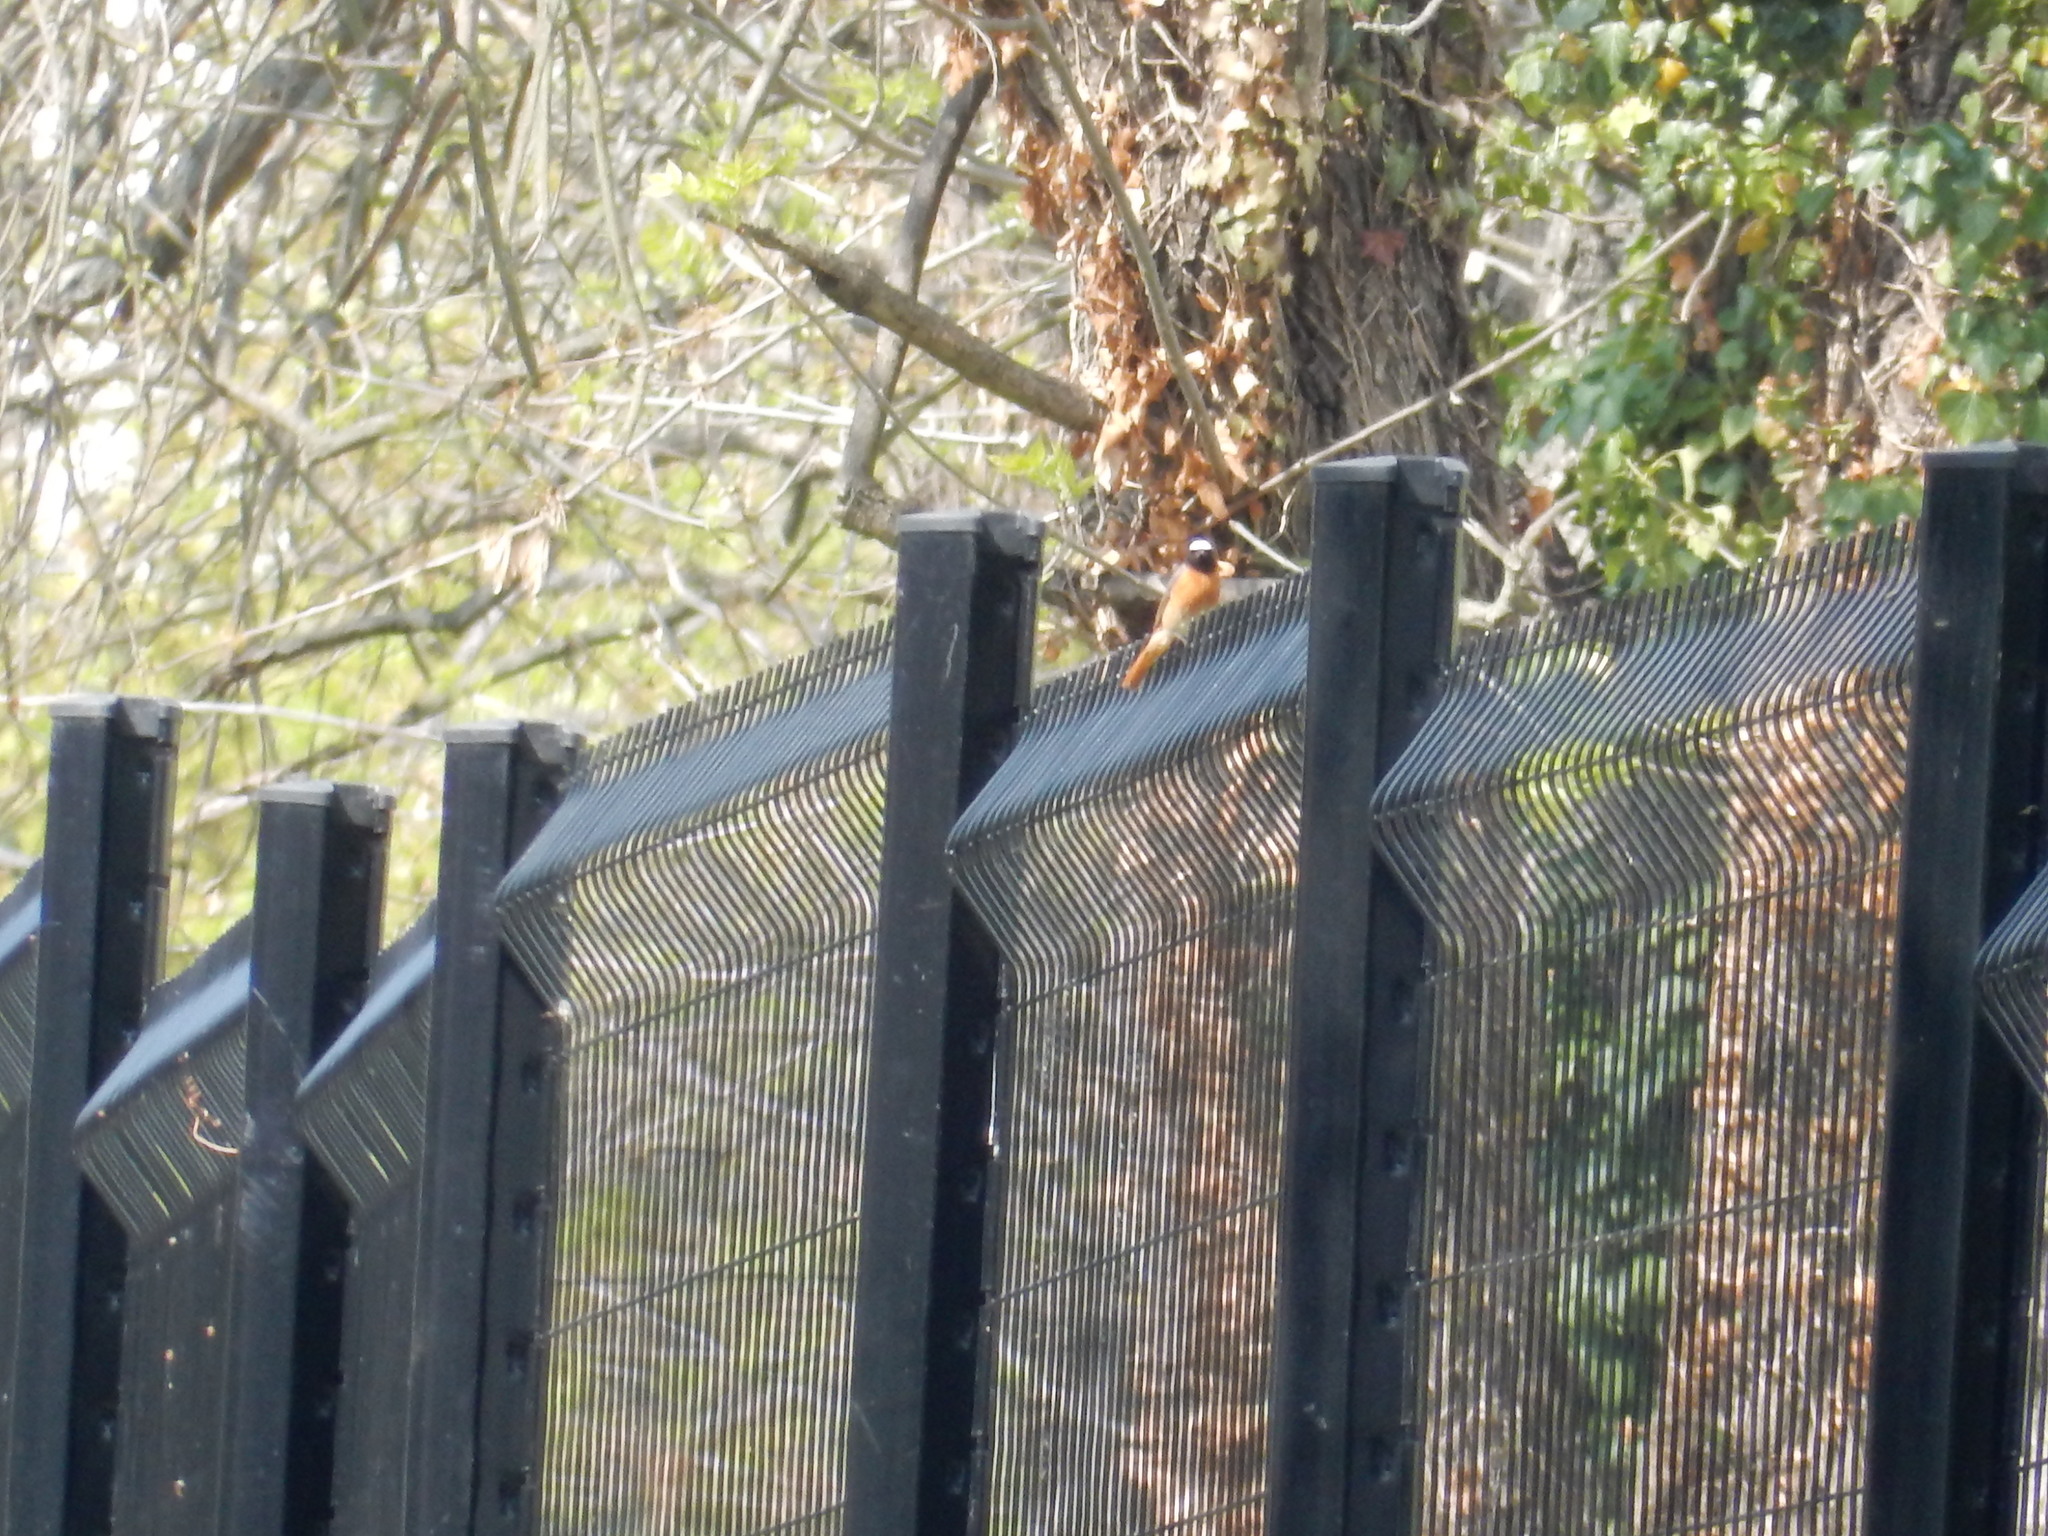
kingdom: Animalia
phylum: Chordata
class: Aves
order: Passeriformes
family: Muscicapidae
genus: Phoenicurus
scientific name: Phoenicurus phoenicurus
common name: Common redstart
